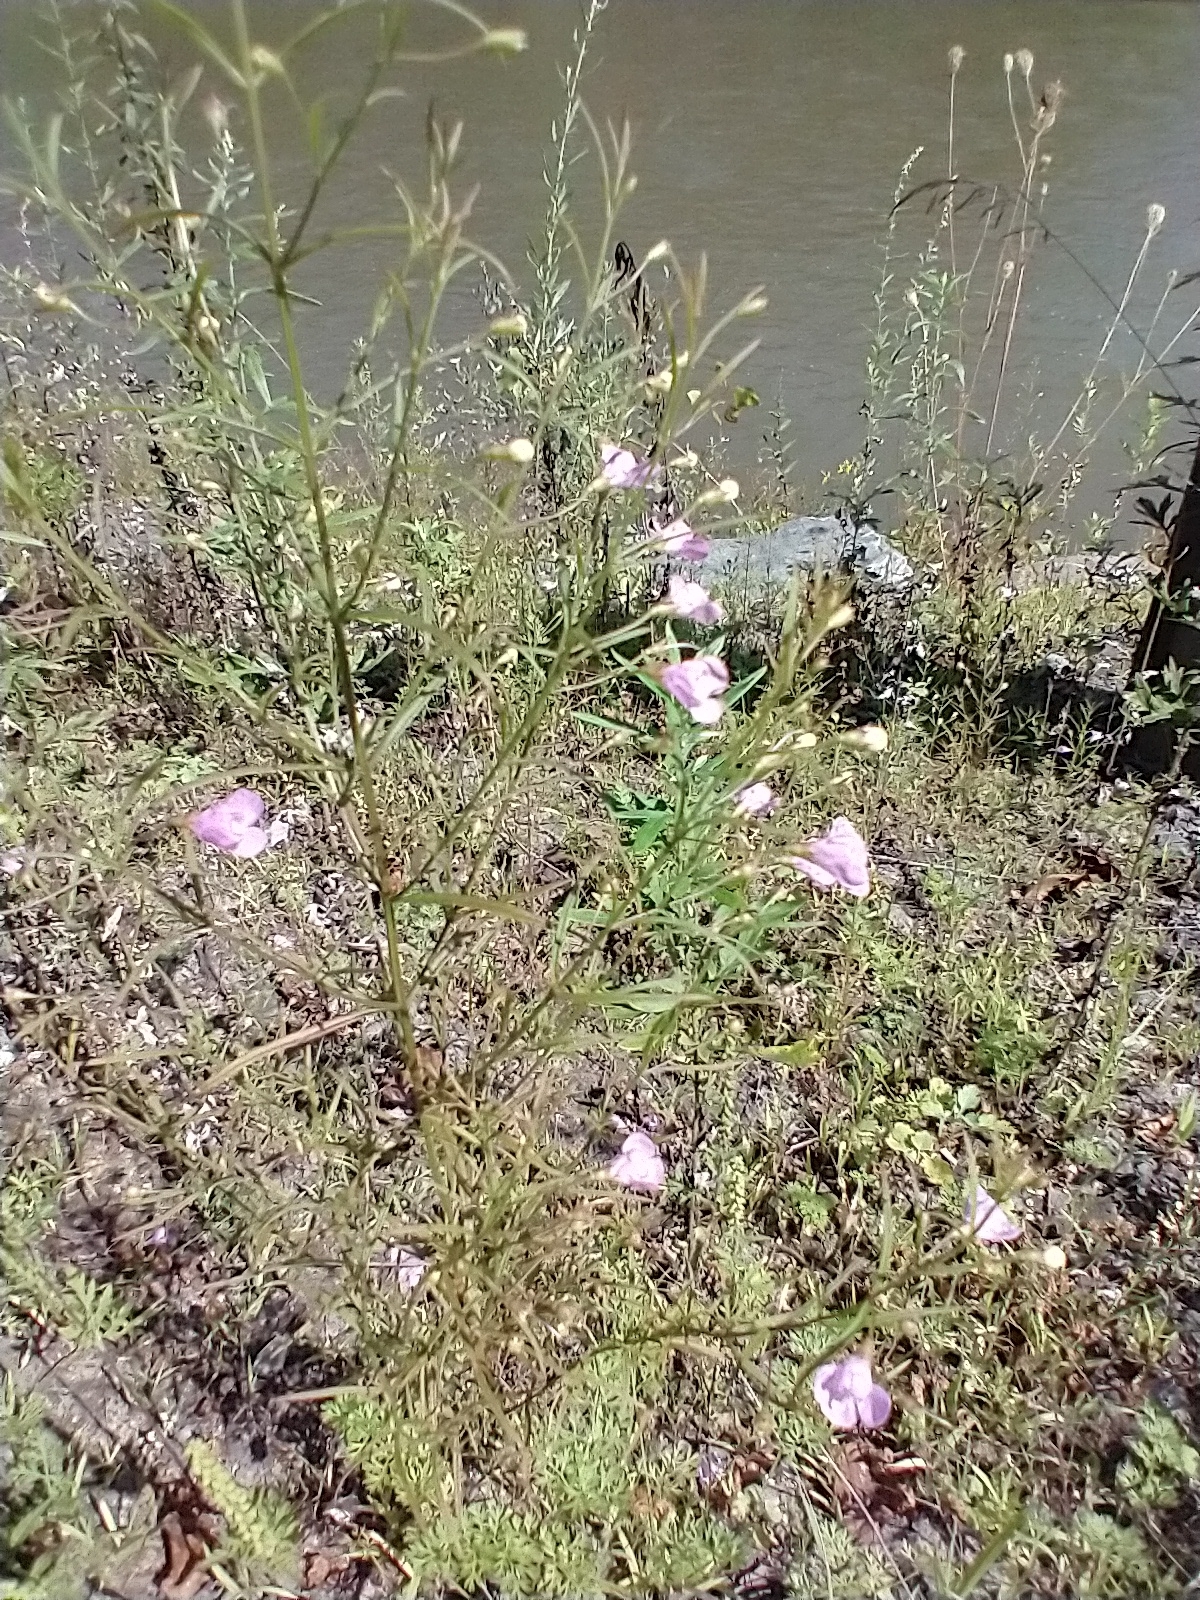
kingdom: Plantae
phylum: Tracheophyta
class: Magnoliopsida
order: Lamiales
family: Orobanchaceae
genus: Agalinis
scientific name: Agalinis tenuifolia
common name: Slender agalinis
